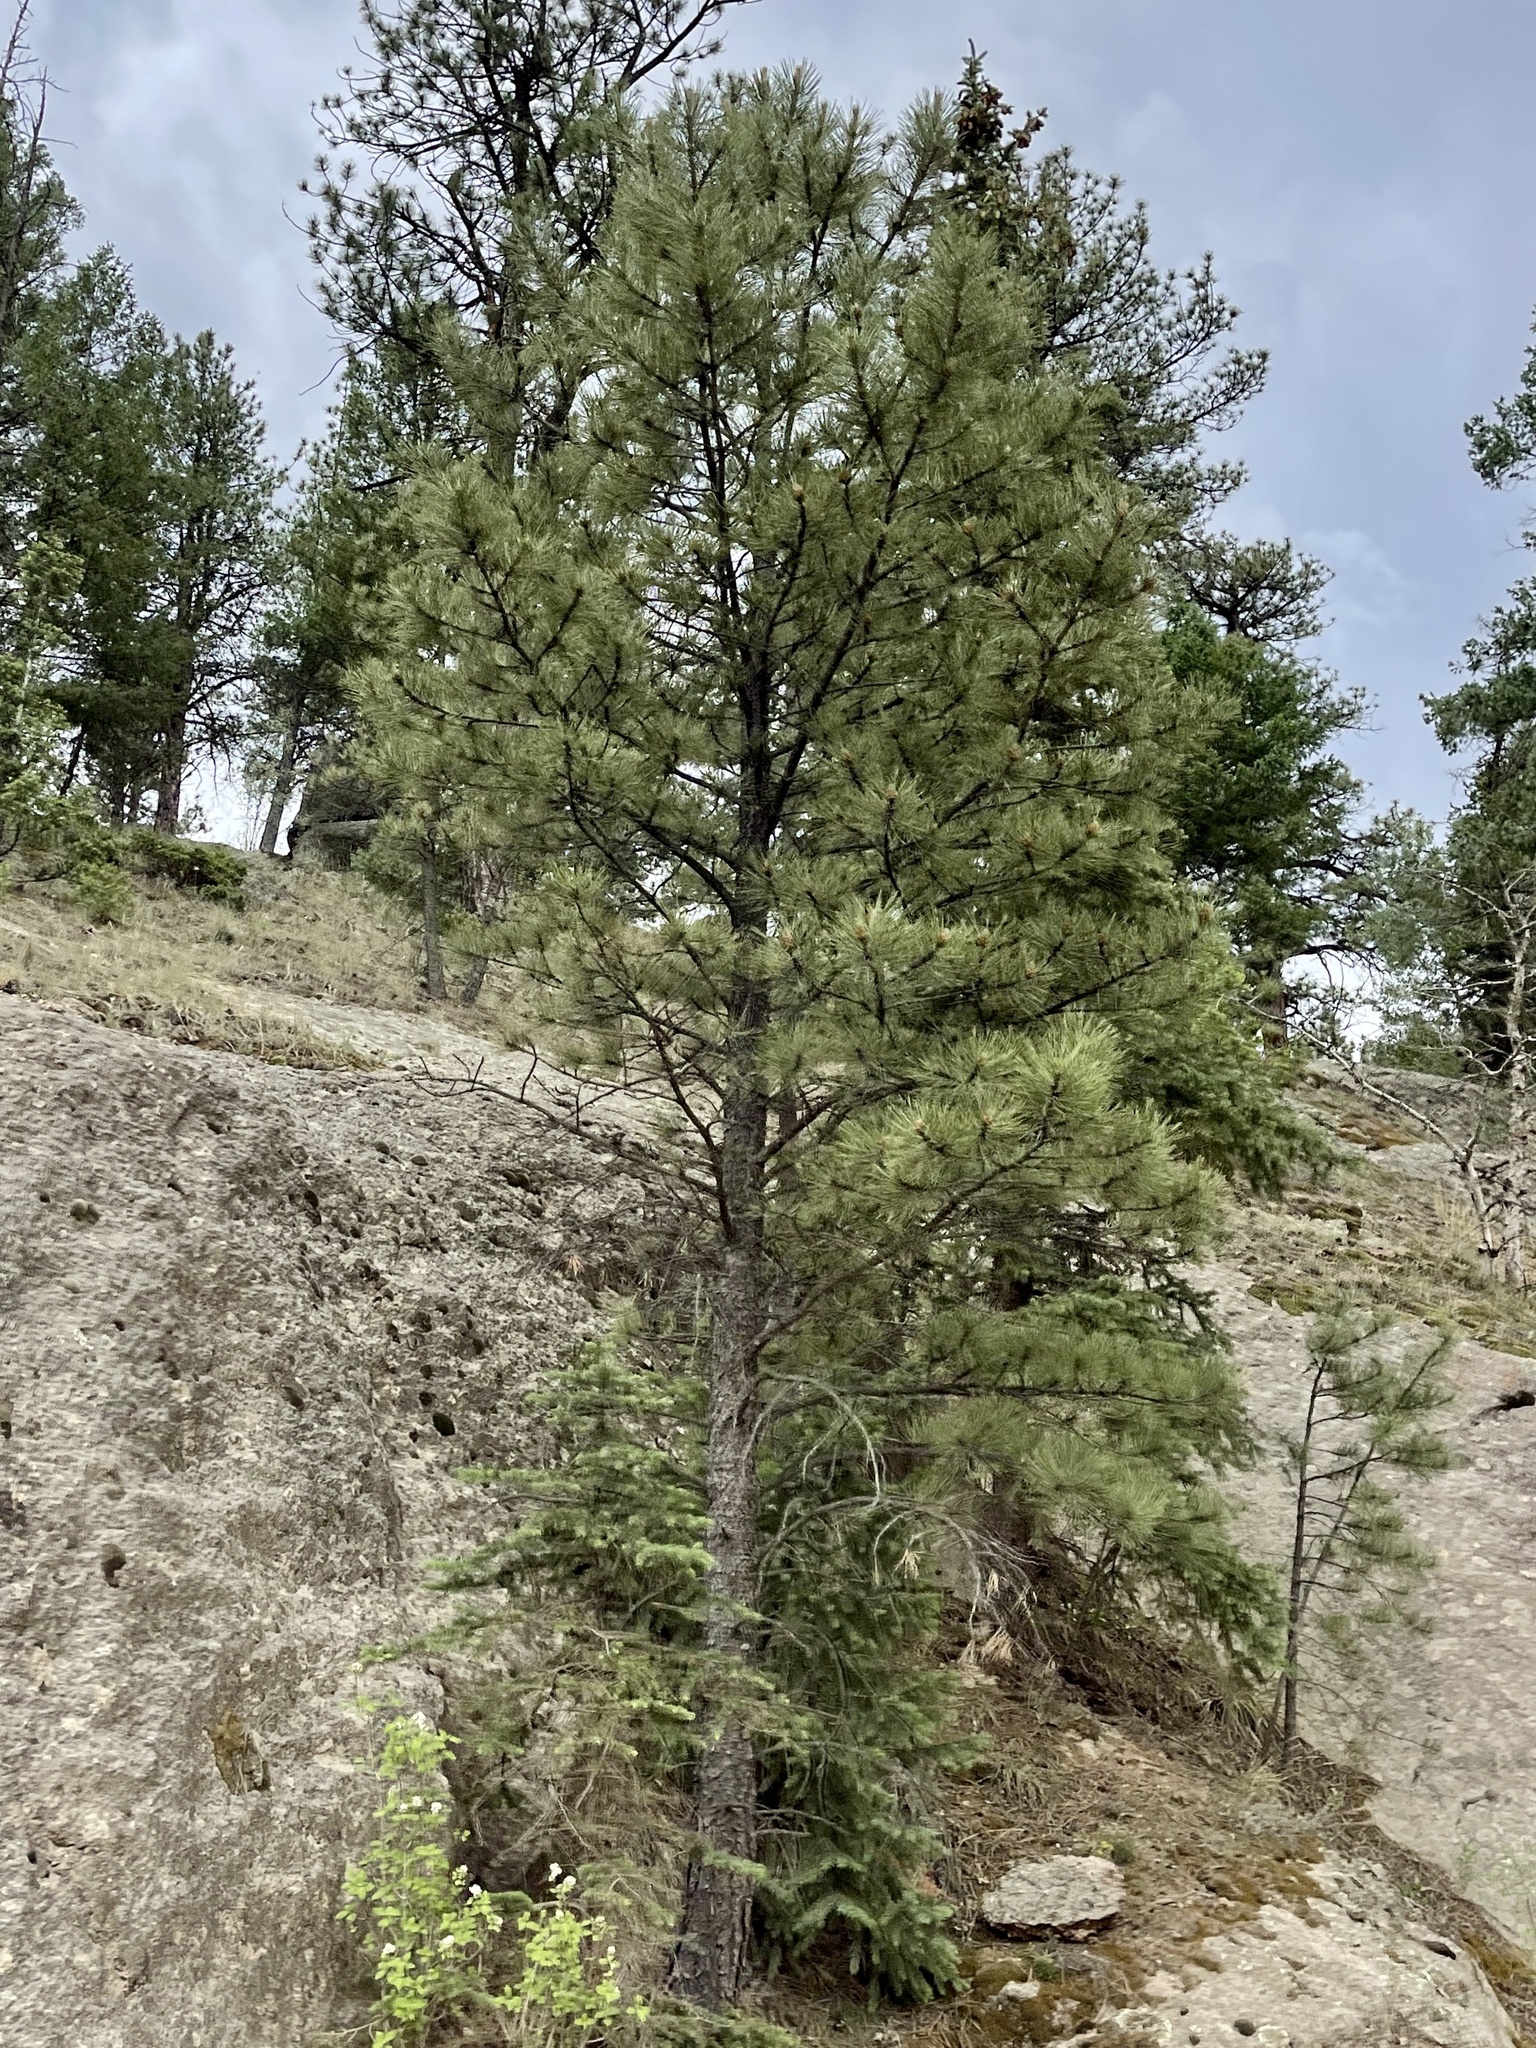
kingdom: Plantae
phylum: Tracheophyta
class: Pinopsida
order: Pinales
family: Pinaceae
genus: Pinus
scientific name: Pinus ponderosa
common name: Western yellow-pine
